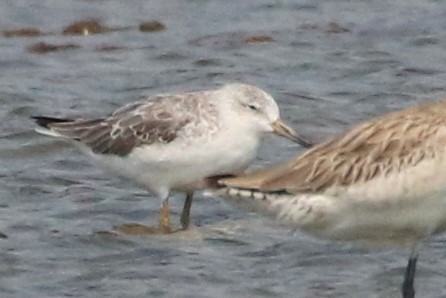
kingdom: Animalia
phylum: Chordata
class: Aves
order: Charadriiformes
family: Scolopacidae
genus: Tringa
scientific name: Tringa guttifer
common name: Nordmann's greenshank
